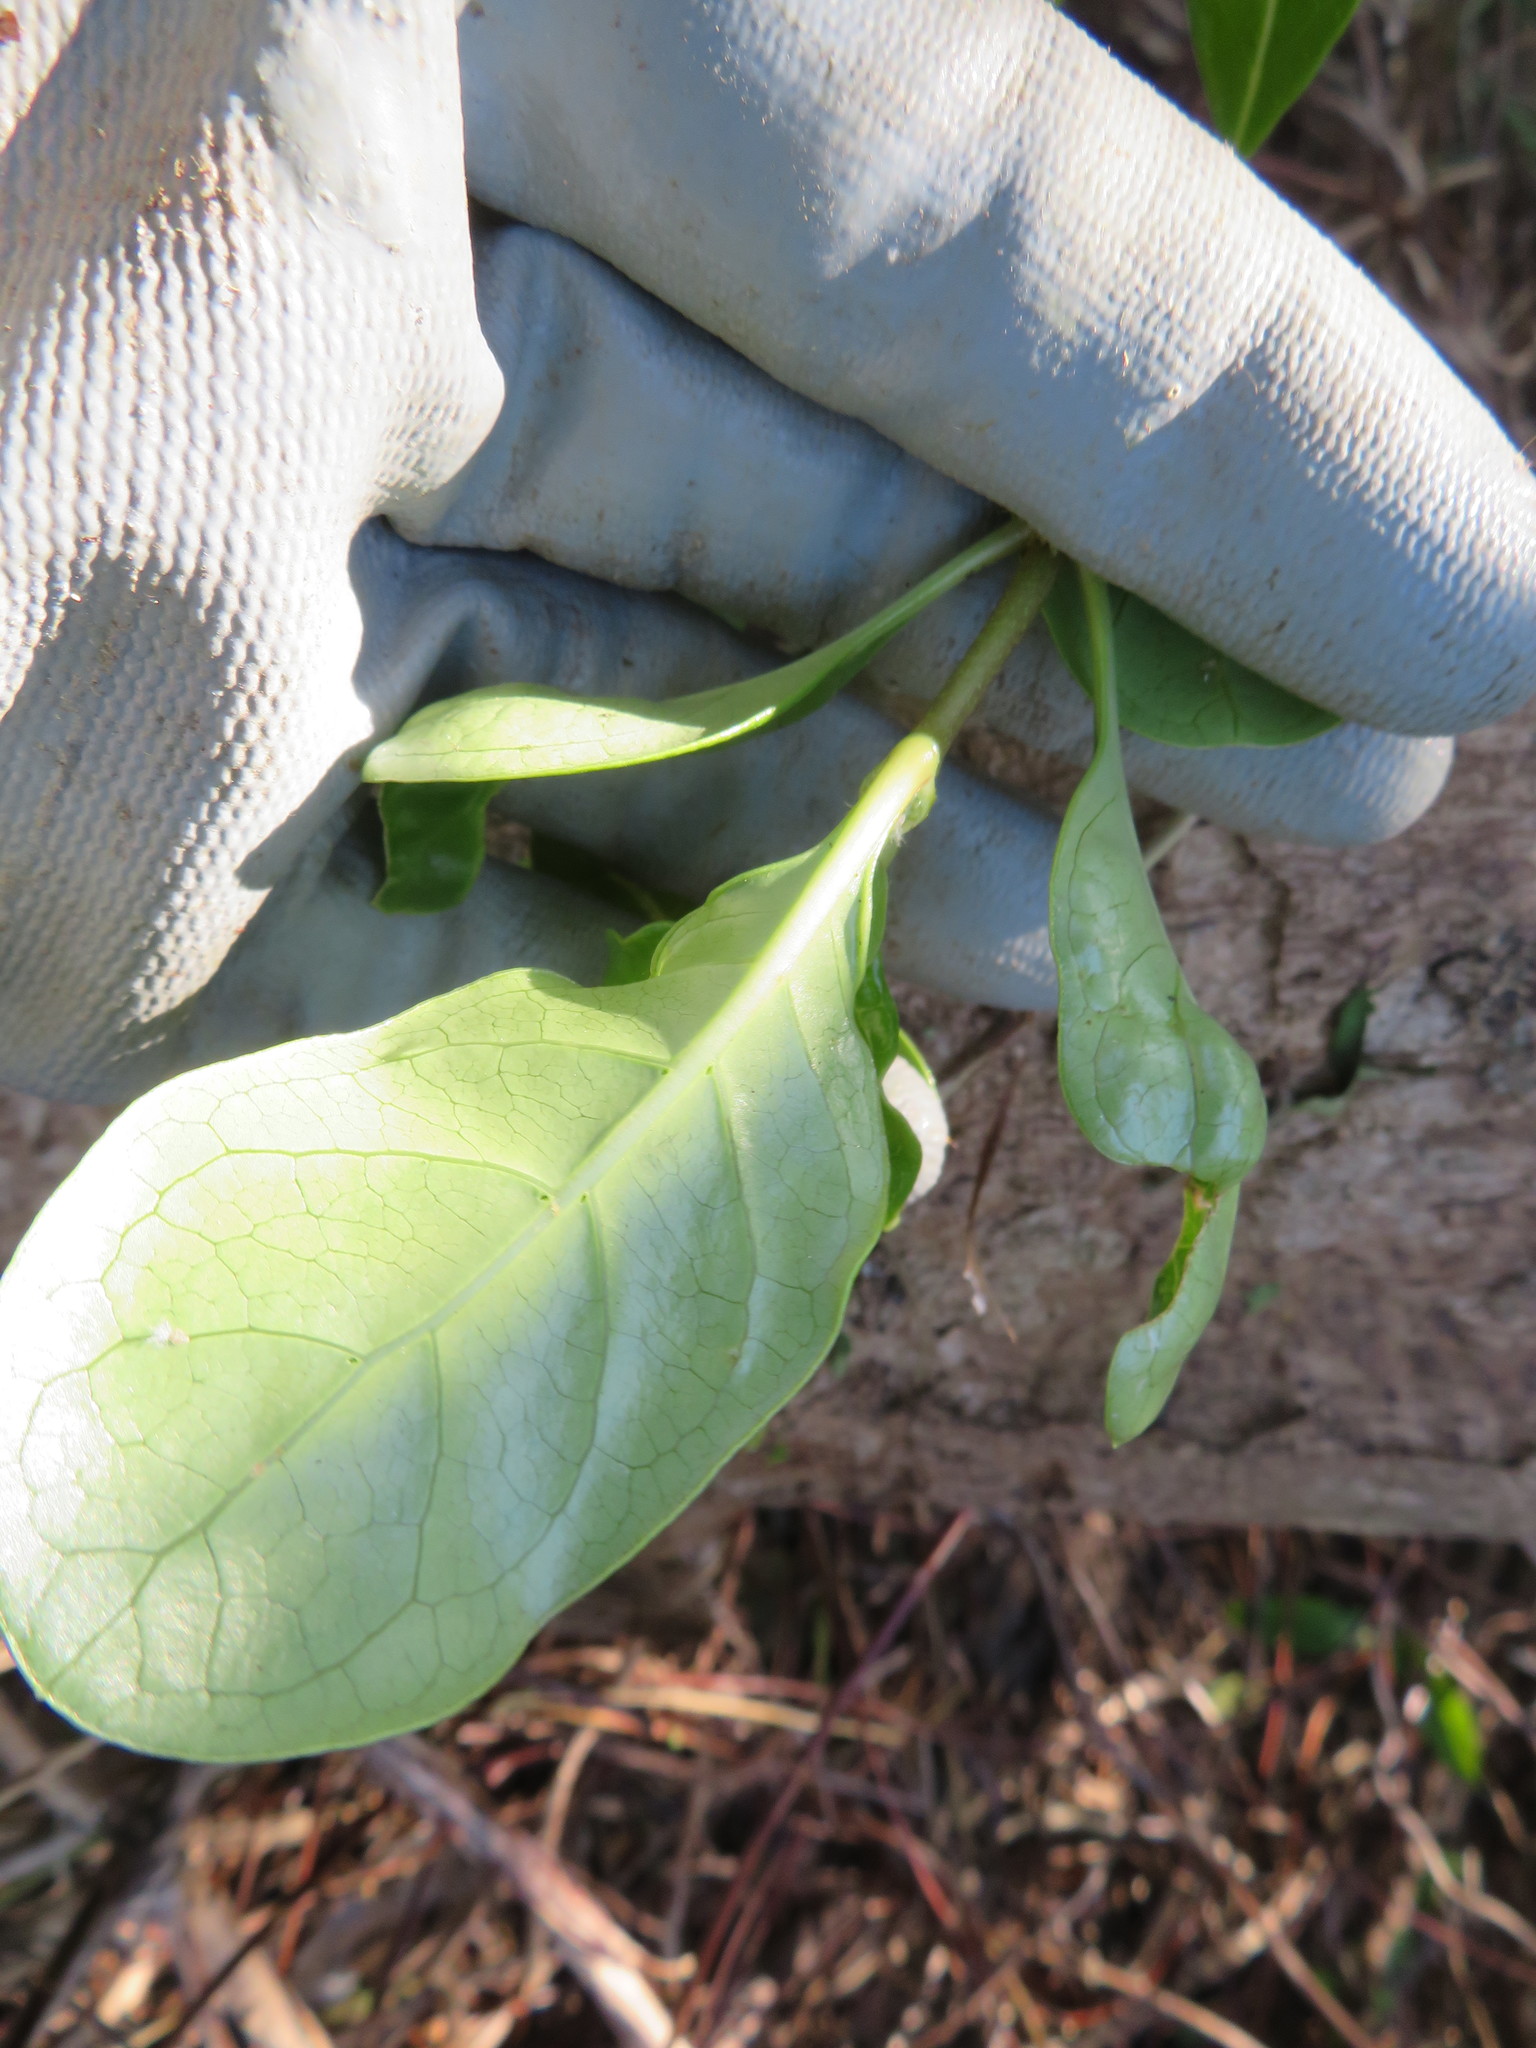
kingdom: Plantae
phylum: Tracheophyta
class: Magnoliopsida
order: Gentianales
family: Rubiaceae
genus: Coprosma
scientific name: Coprosma repens
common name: Tree bedstraw
